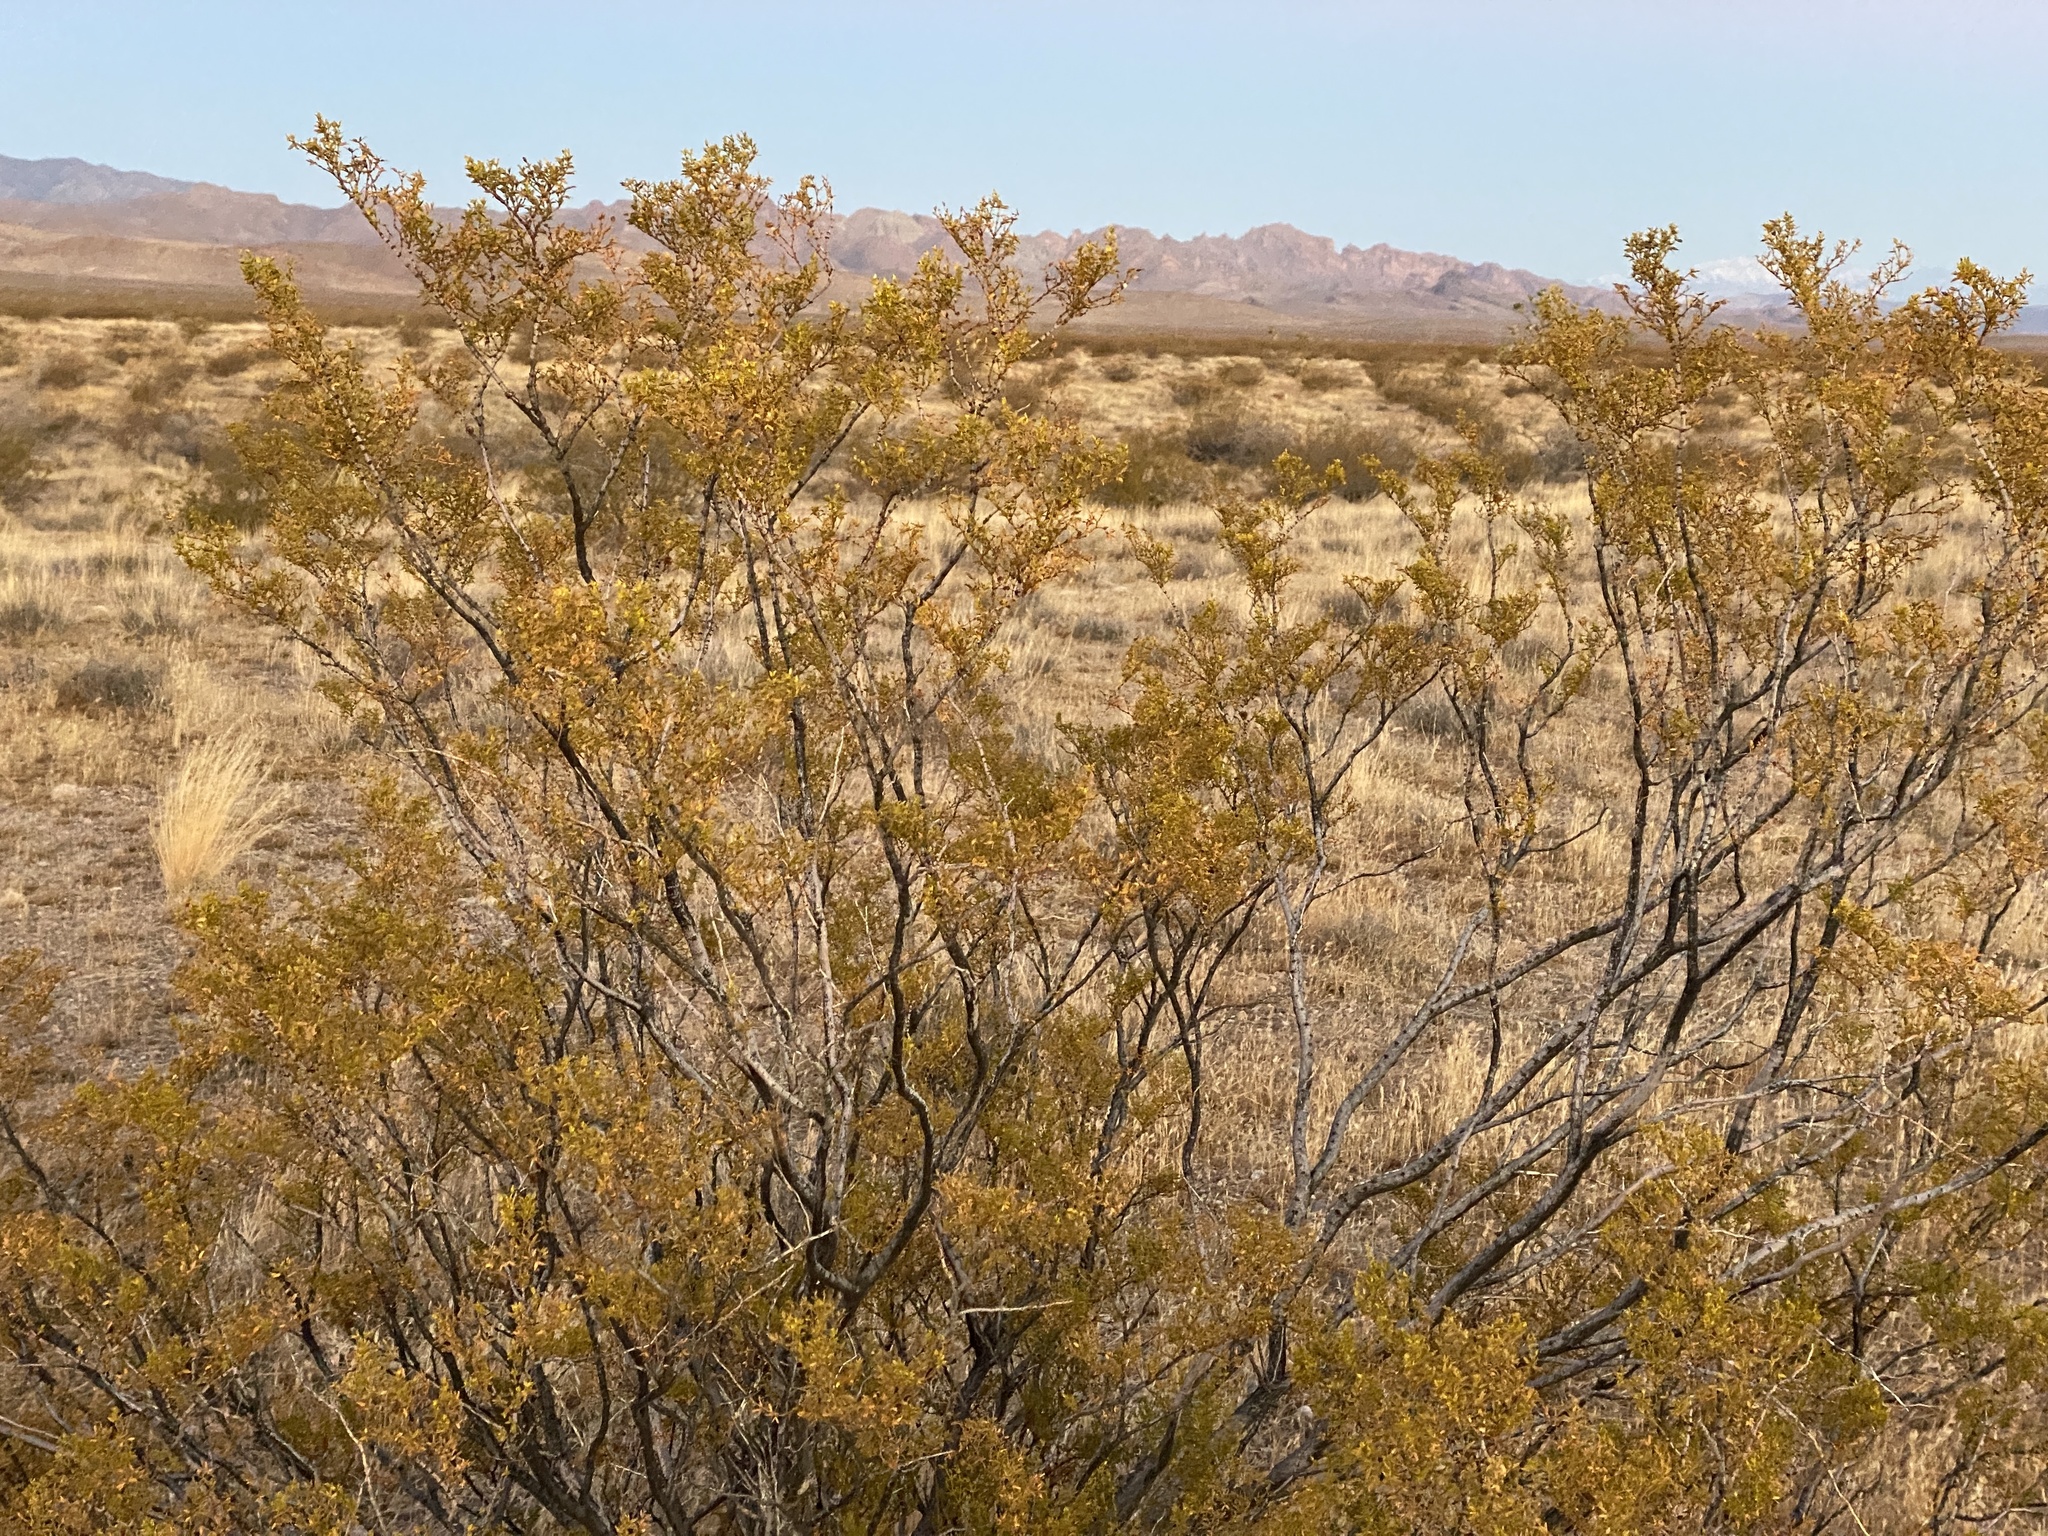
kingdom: Plantae
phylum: Tracheophyta
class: Magnoliopsida
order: Zygophyllales
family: Zygophyllaceae
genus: Larrea
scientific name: Larrea tridentata
